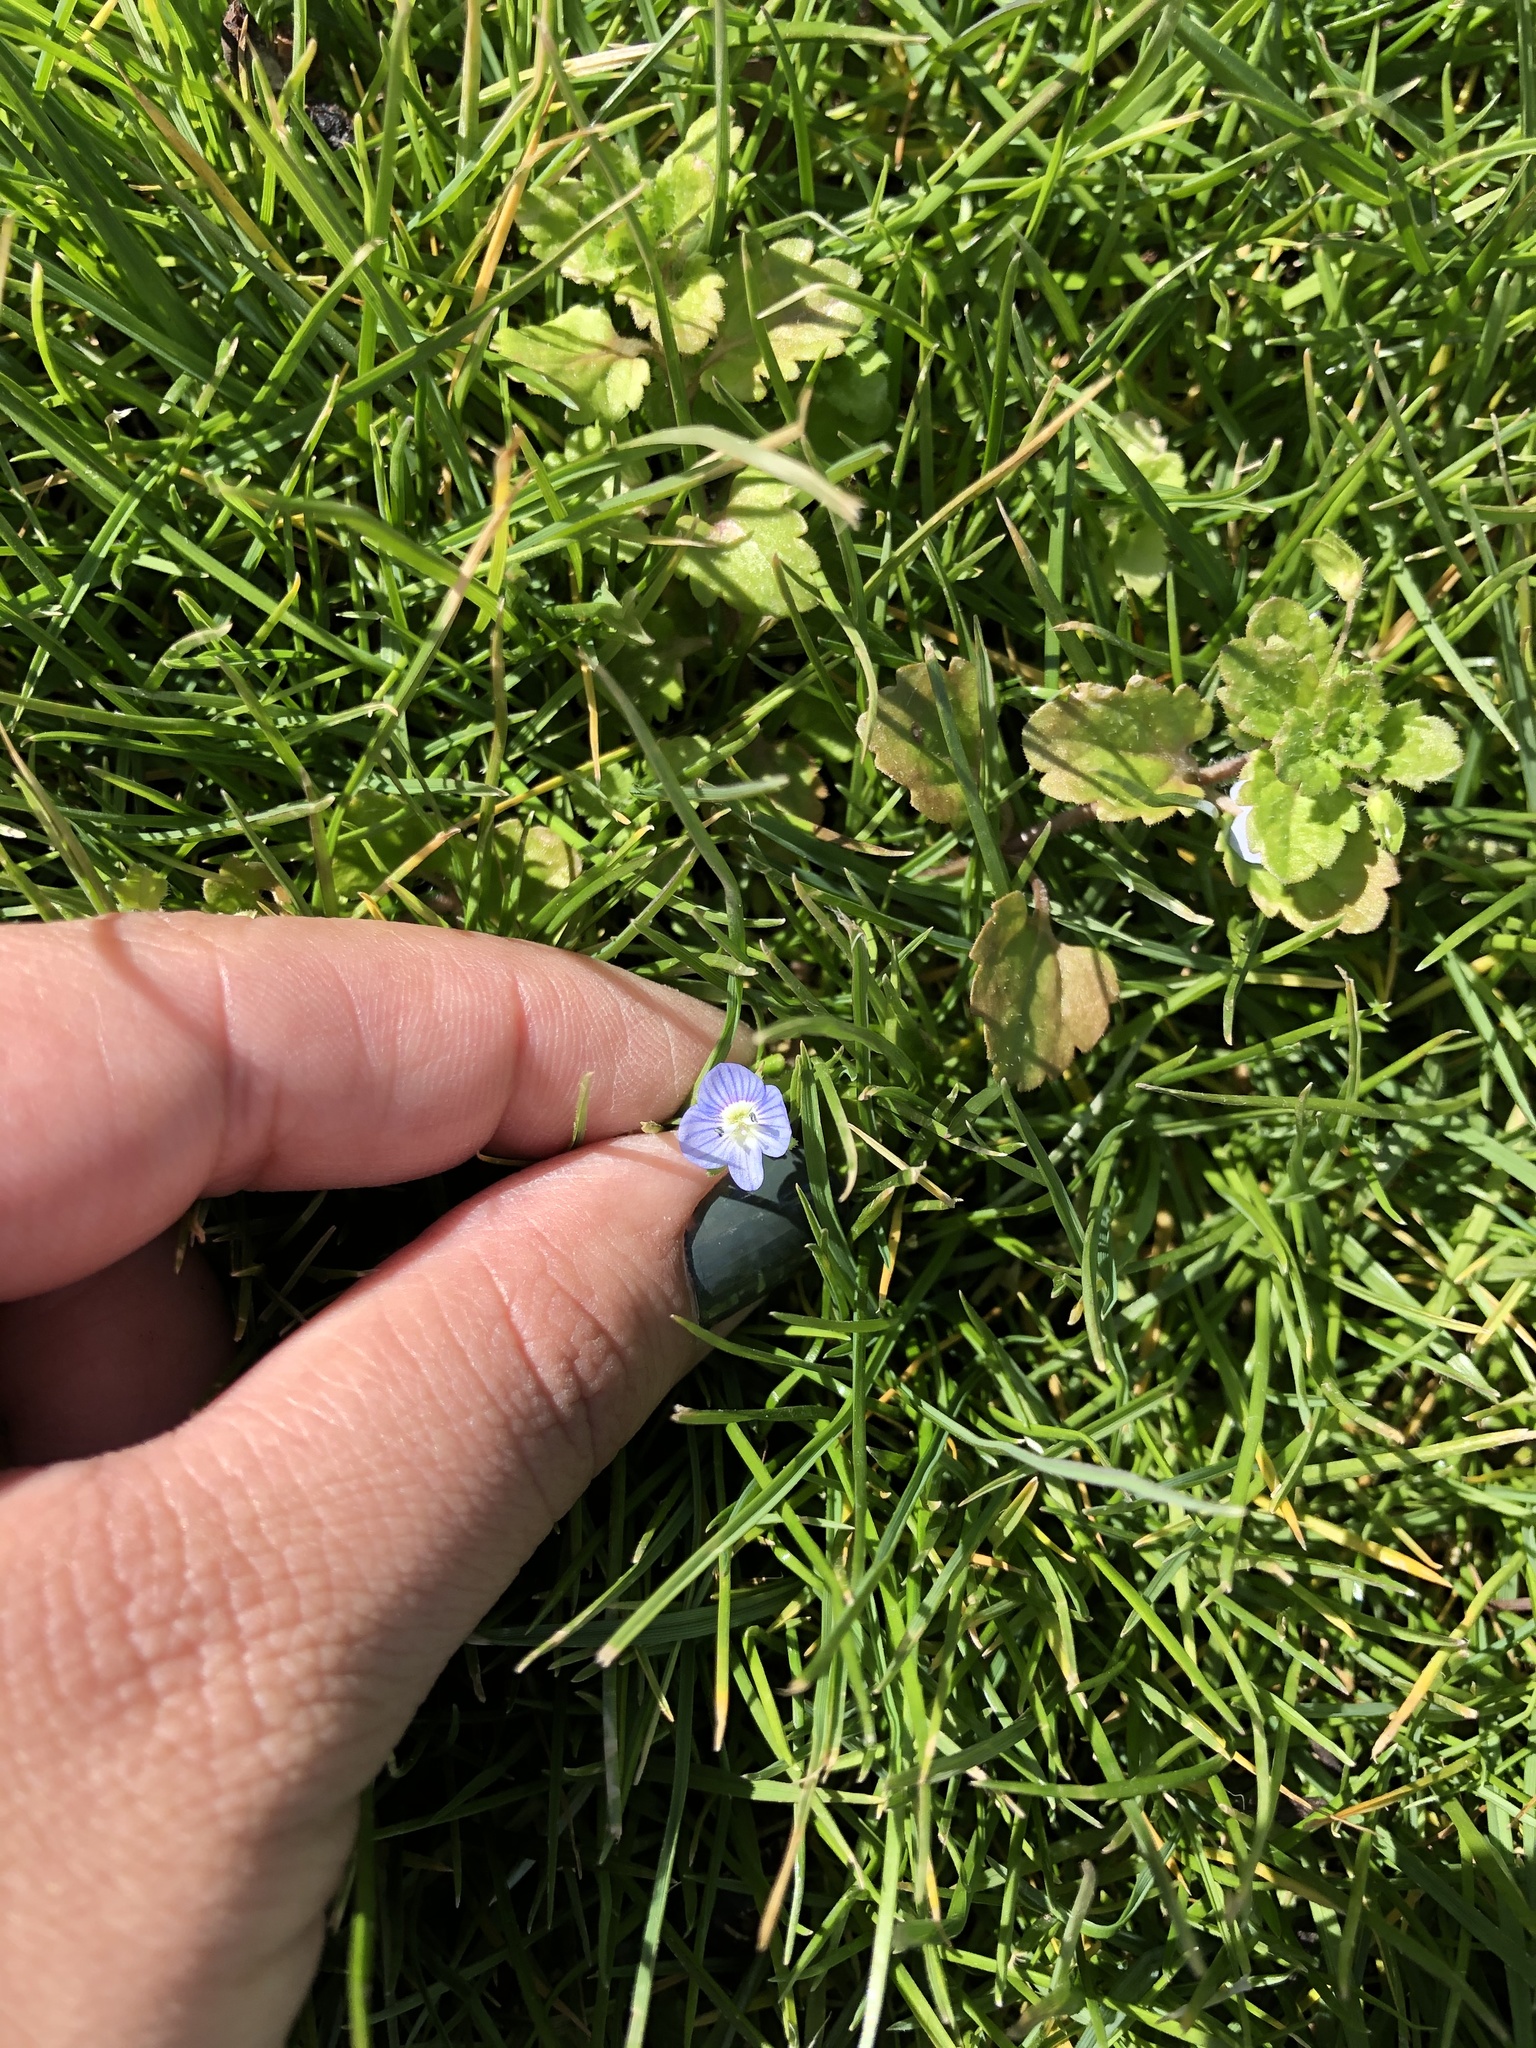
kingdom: Plantae
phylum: Tracheophyta
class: Magnoliopsida
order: Lamiales
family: Plantaginaceae
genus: Veronica
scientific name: Veronica persica
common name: Common field-speedwell
